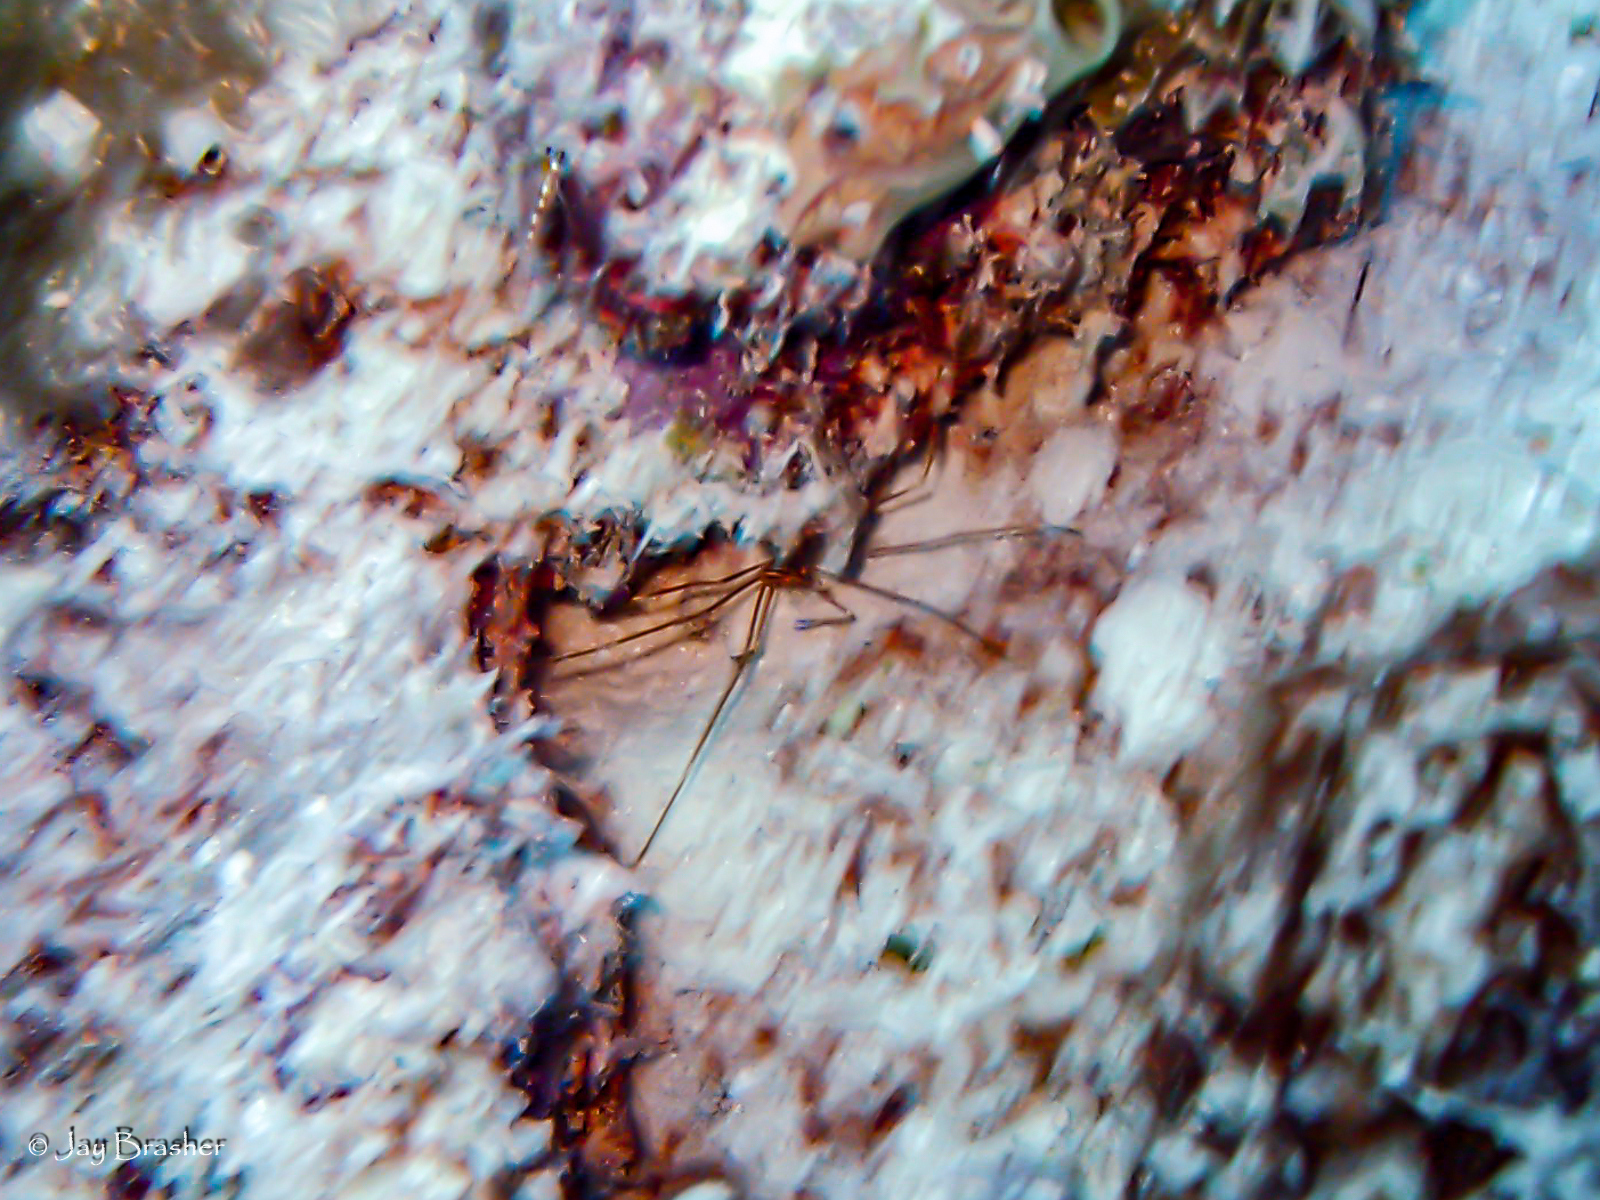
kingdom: Animalia
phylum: Arthropoda
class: Malacostraca
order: Decapoda
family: Inachoididae
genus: Stenorhynchus
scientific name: Stenorhynchus seticornis
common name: Arrow crab
